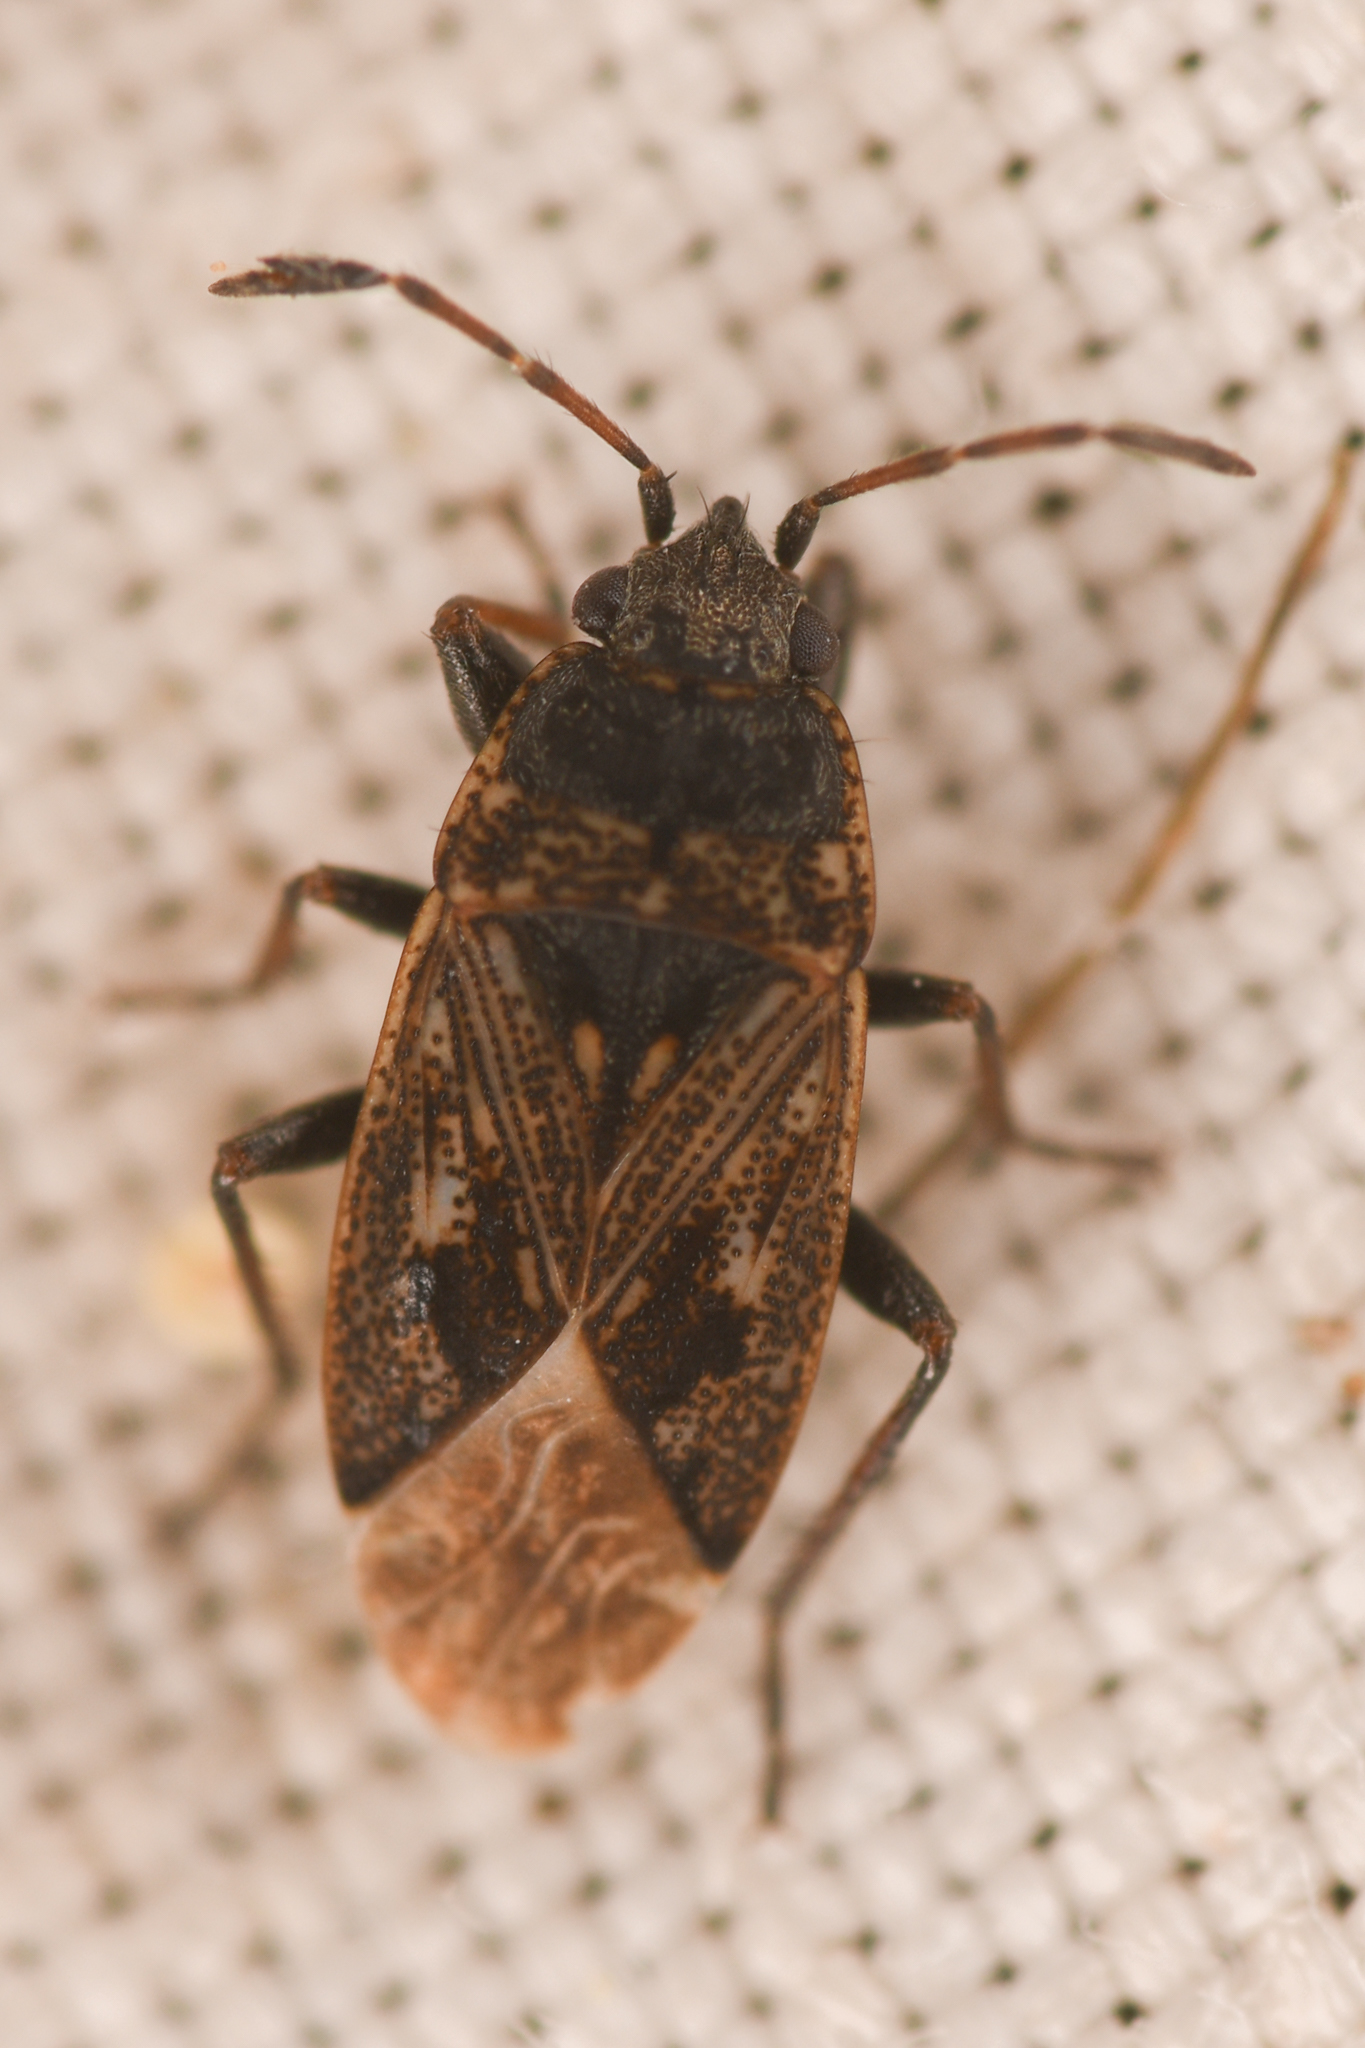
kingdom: Animalia
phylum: Arthropoda
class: Insecta
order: Hemiptera
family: Rhyparochromidae
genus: Sphragisticus
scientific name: Sphragisticus nebulosus
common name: Dirt-colored seed bug
